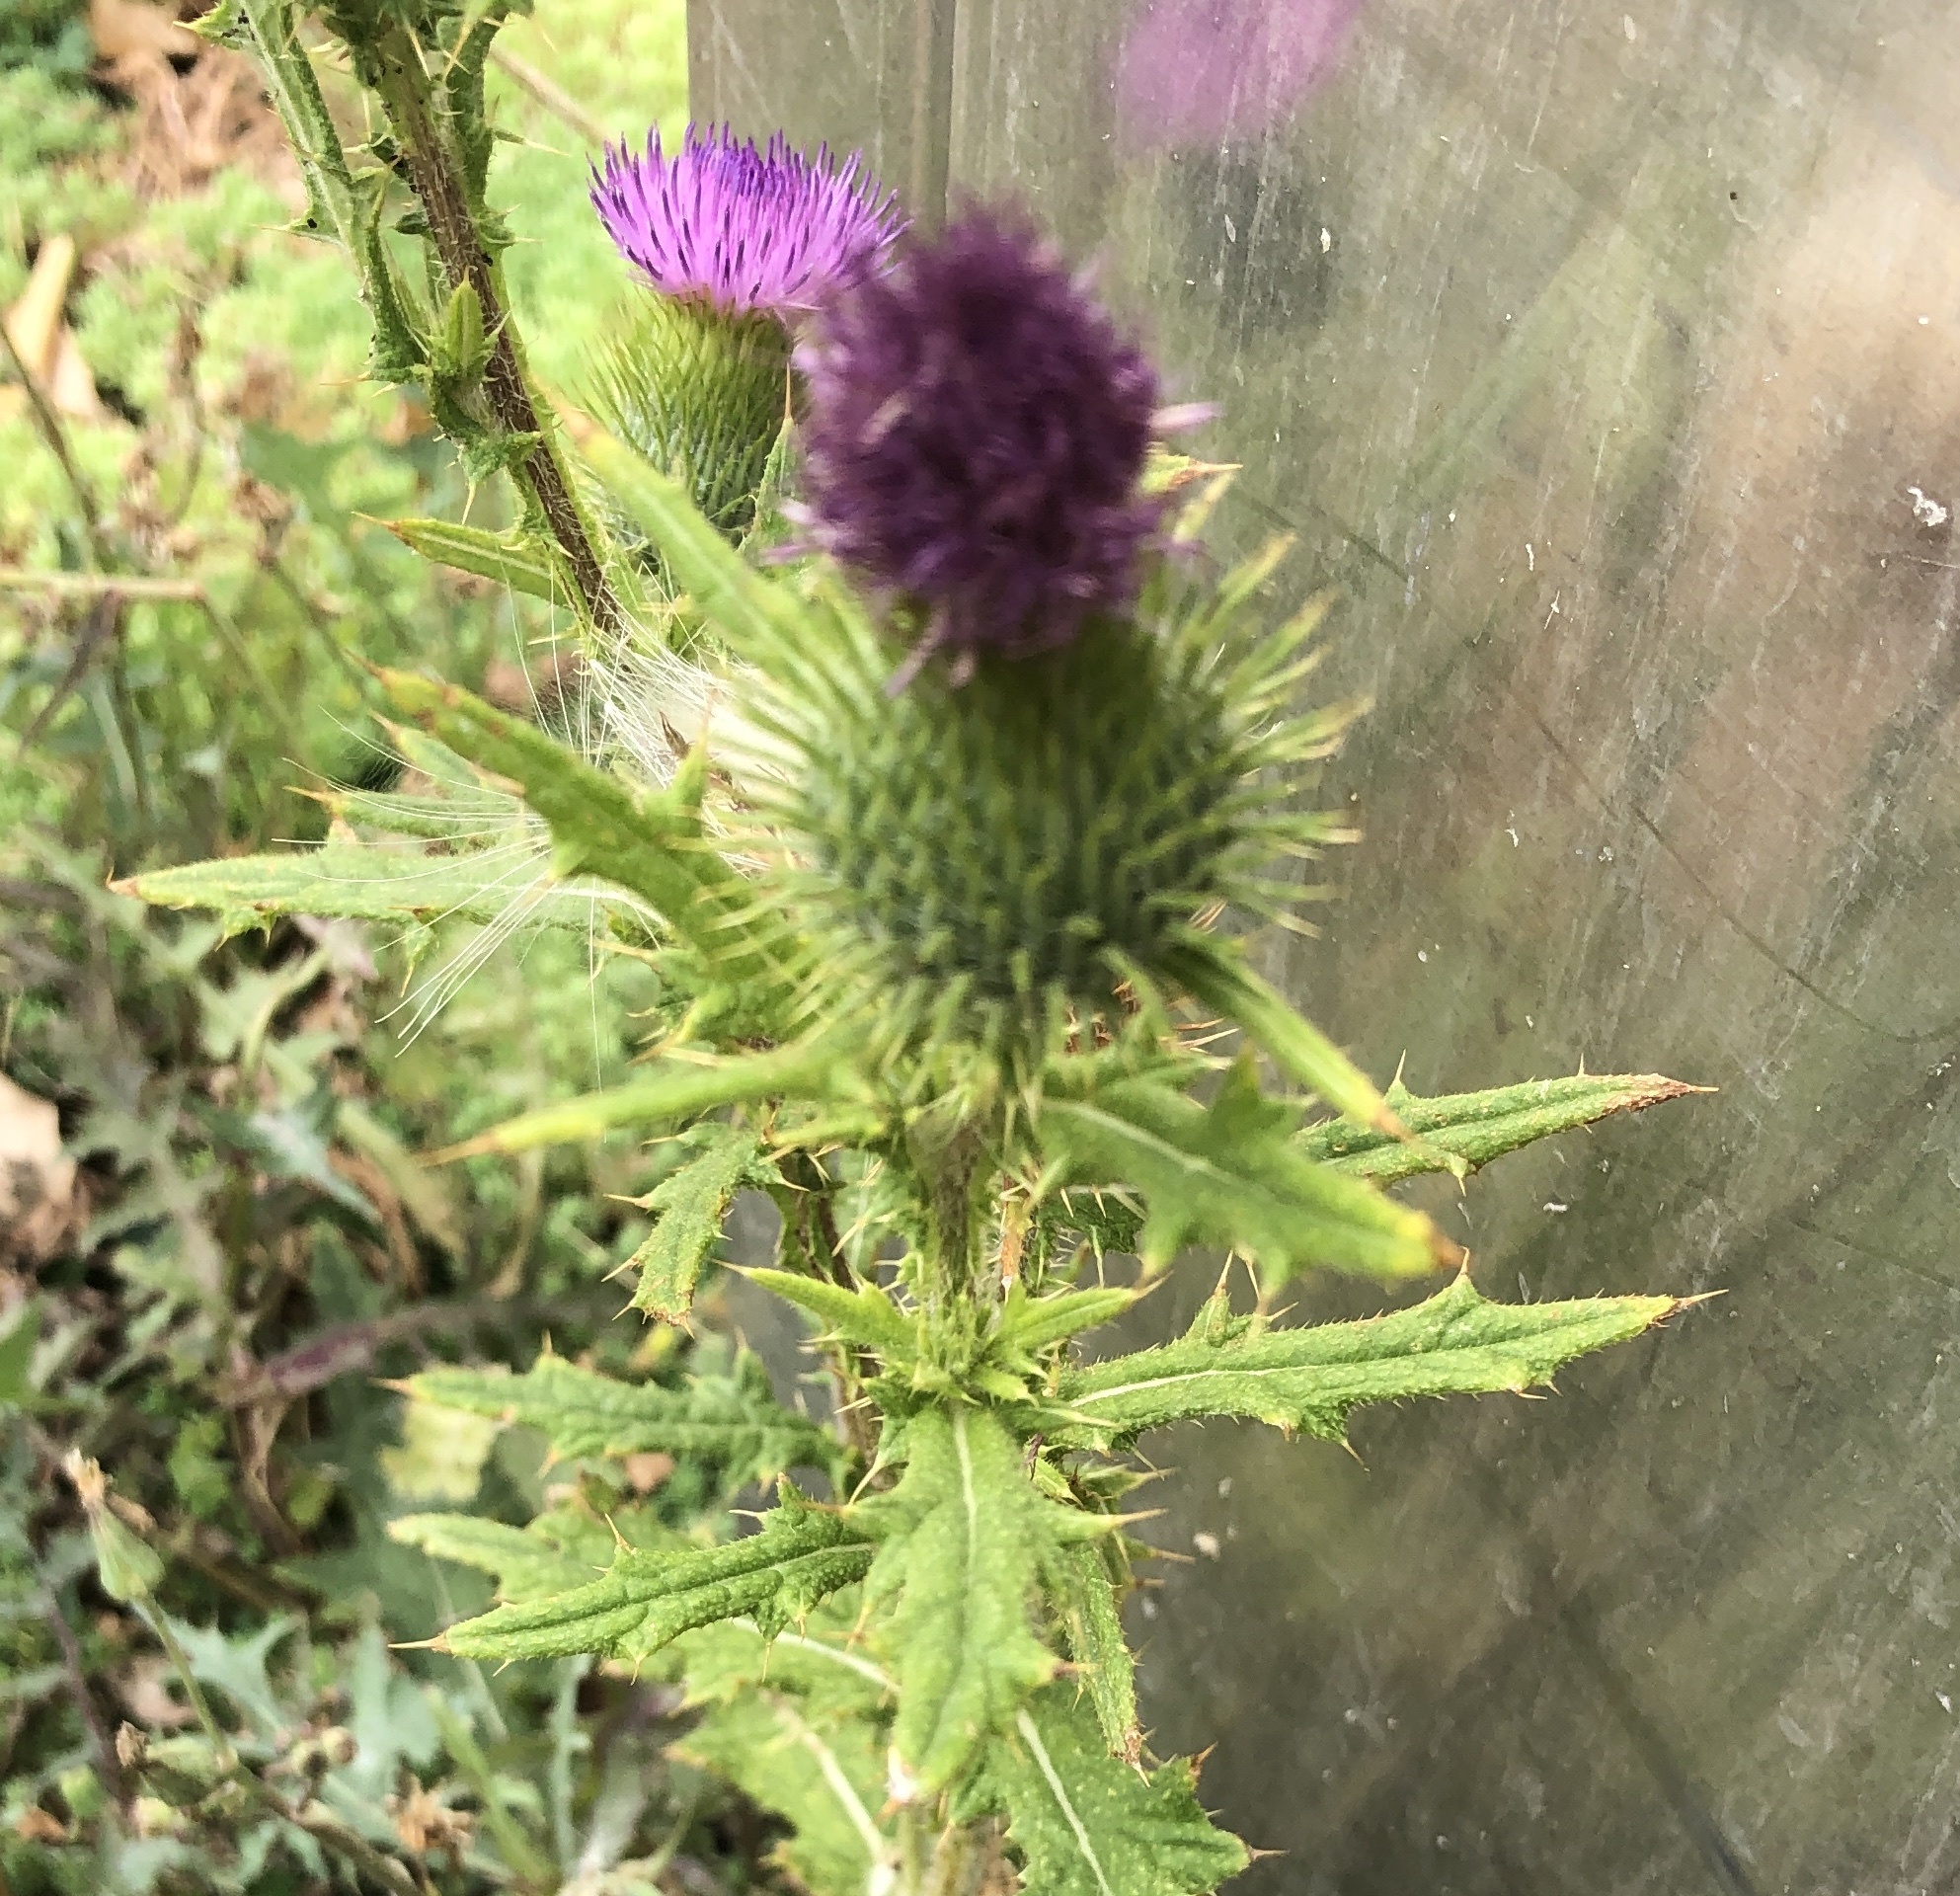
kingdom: Plantae
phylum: Tracheophyta
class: Magnoliopsida
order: Asterales
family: Asteraceae
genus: Cirsium
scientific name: Cirsium vulgare
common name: Bull thistle
